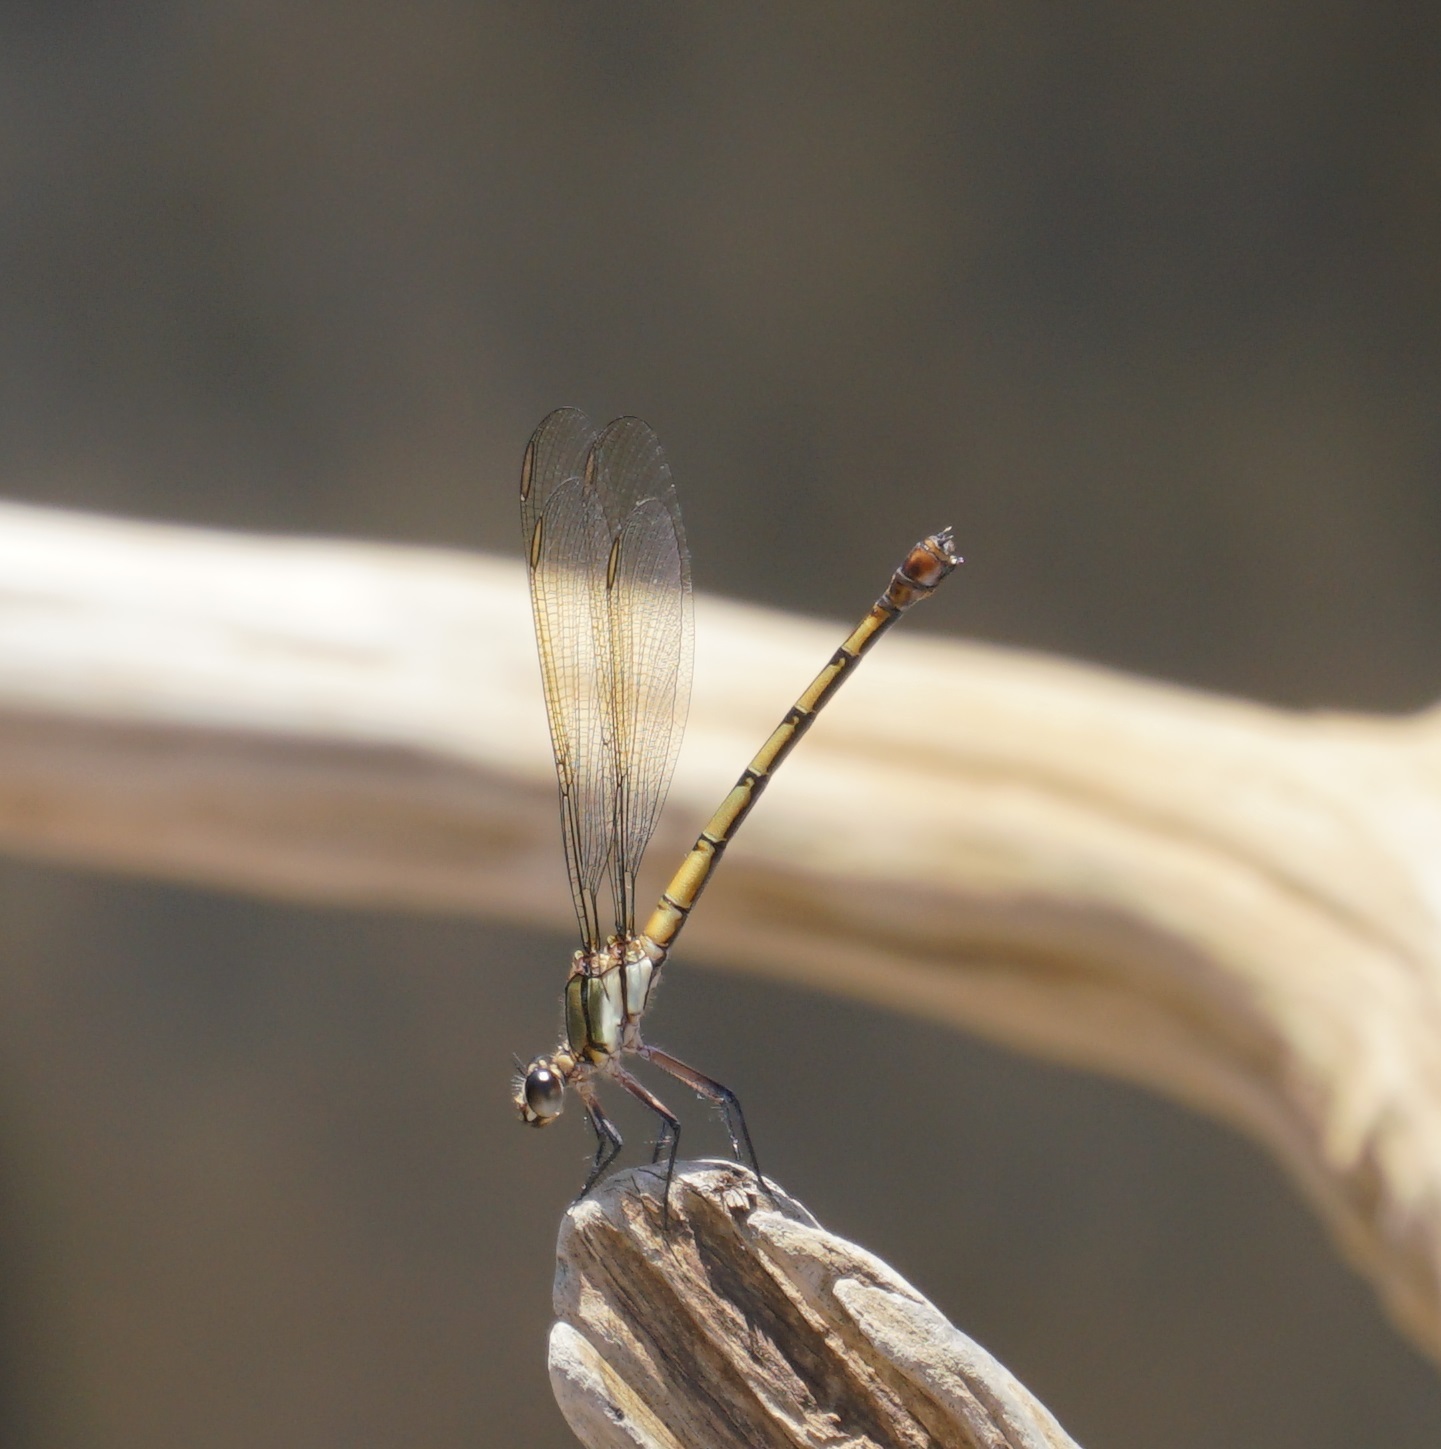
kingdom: Animalia
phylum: Arthropoda
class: Insecta
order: Odonata
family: Lestoideidae
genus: Diphlebia
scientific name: Diphlebia euphoeoides
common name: Tropical rockmaster
